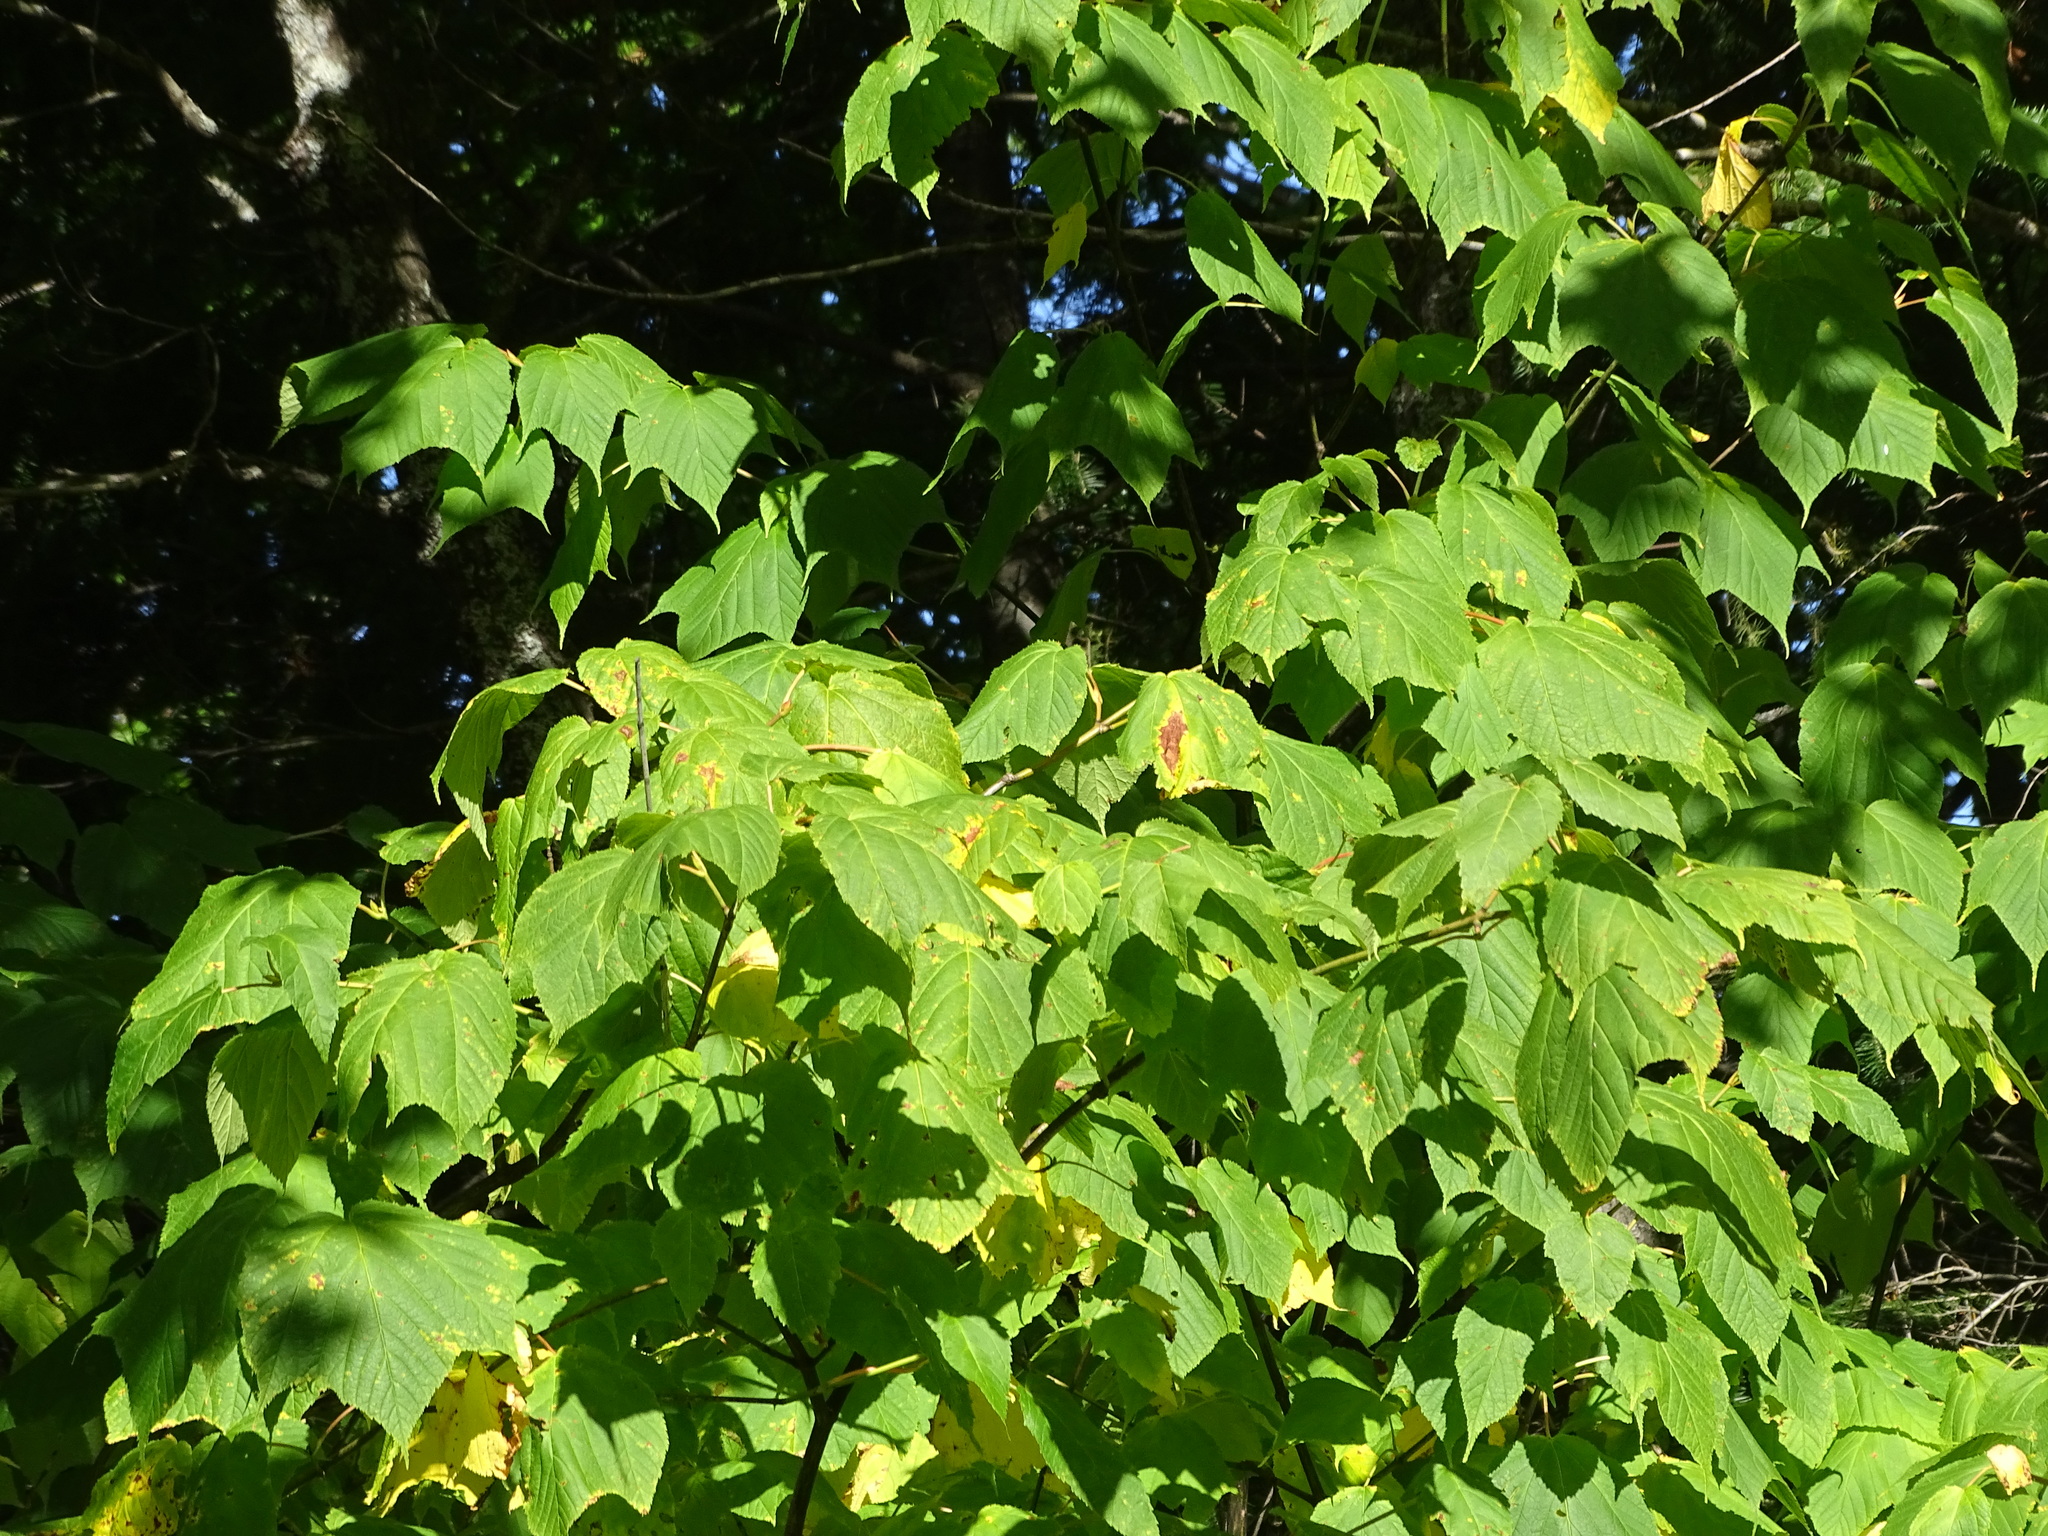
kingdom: Plantae
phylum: Tracheophyta
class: Magnoliopsida
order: Sapindales
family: Sapindaceae
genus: Acer
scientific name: Acer pensylvanicum
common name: Moosewood
